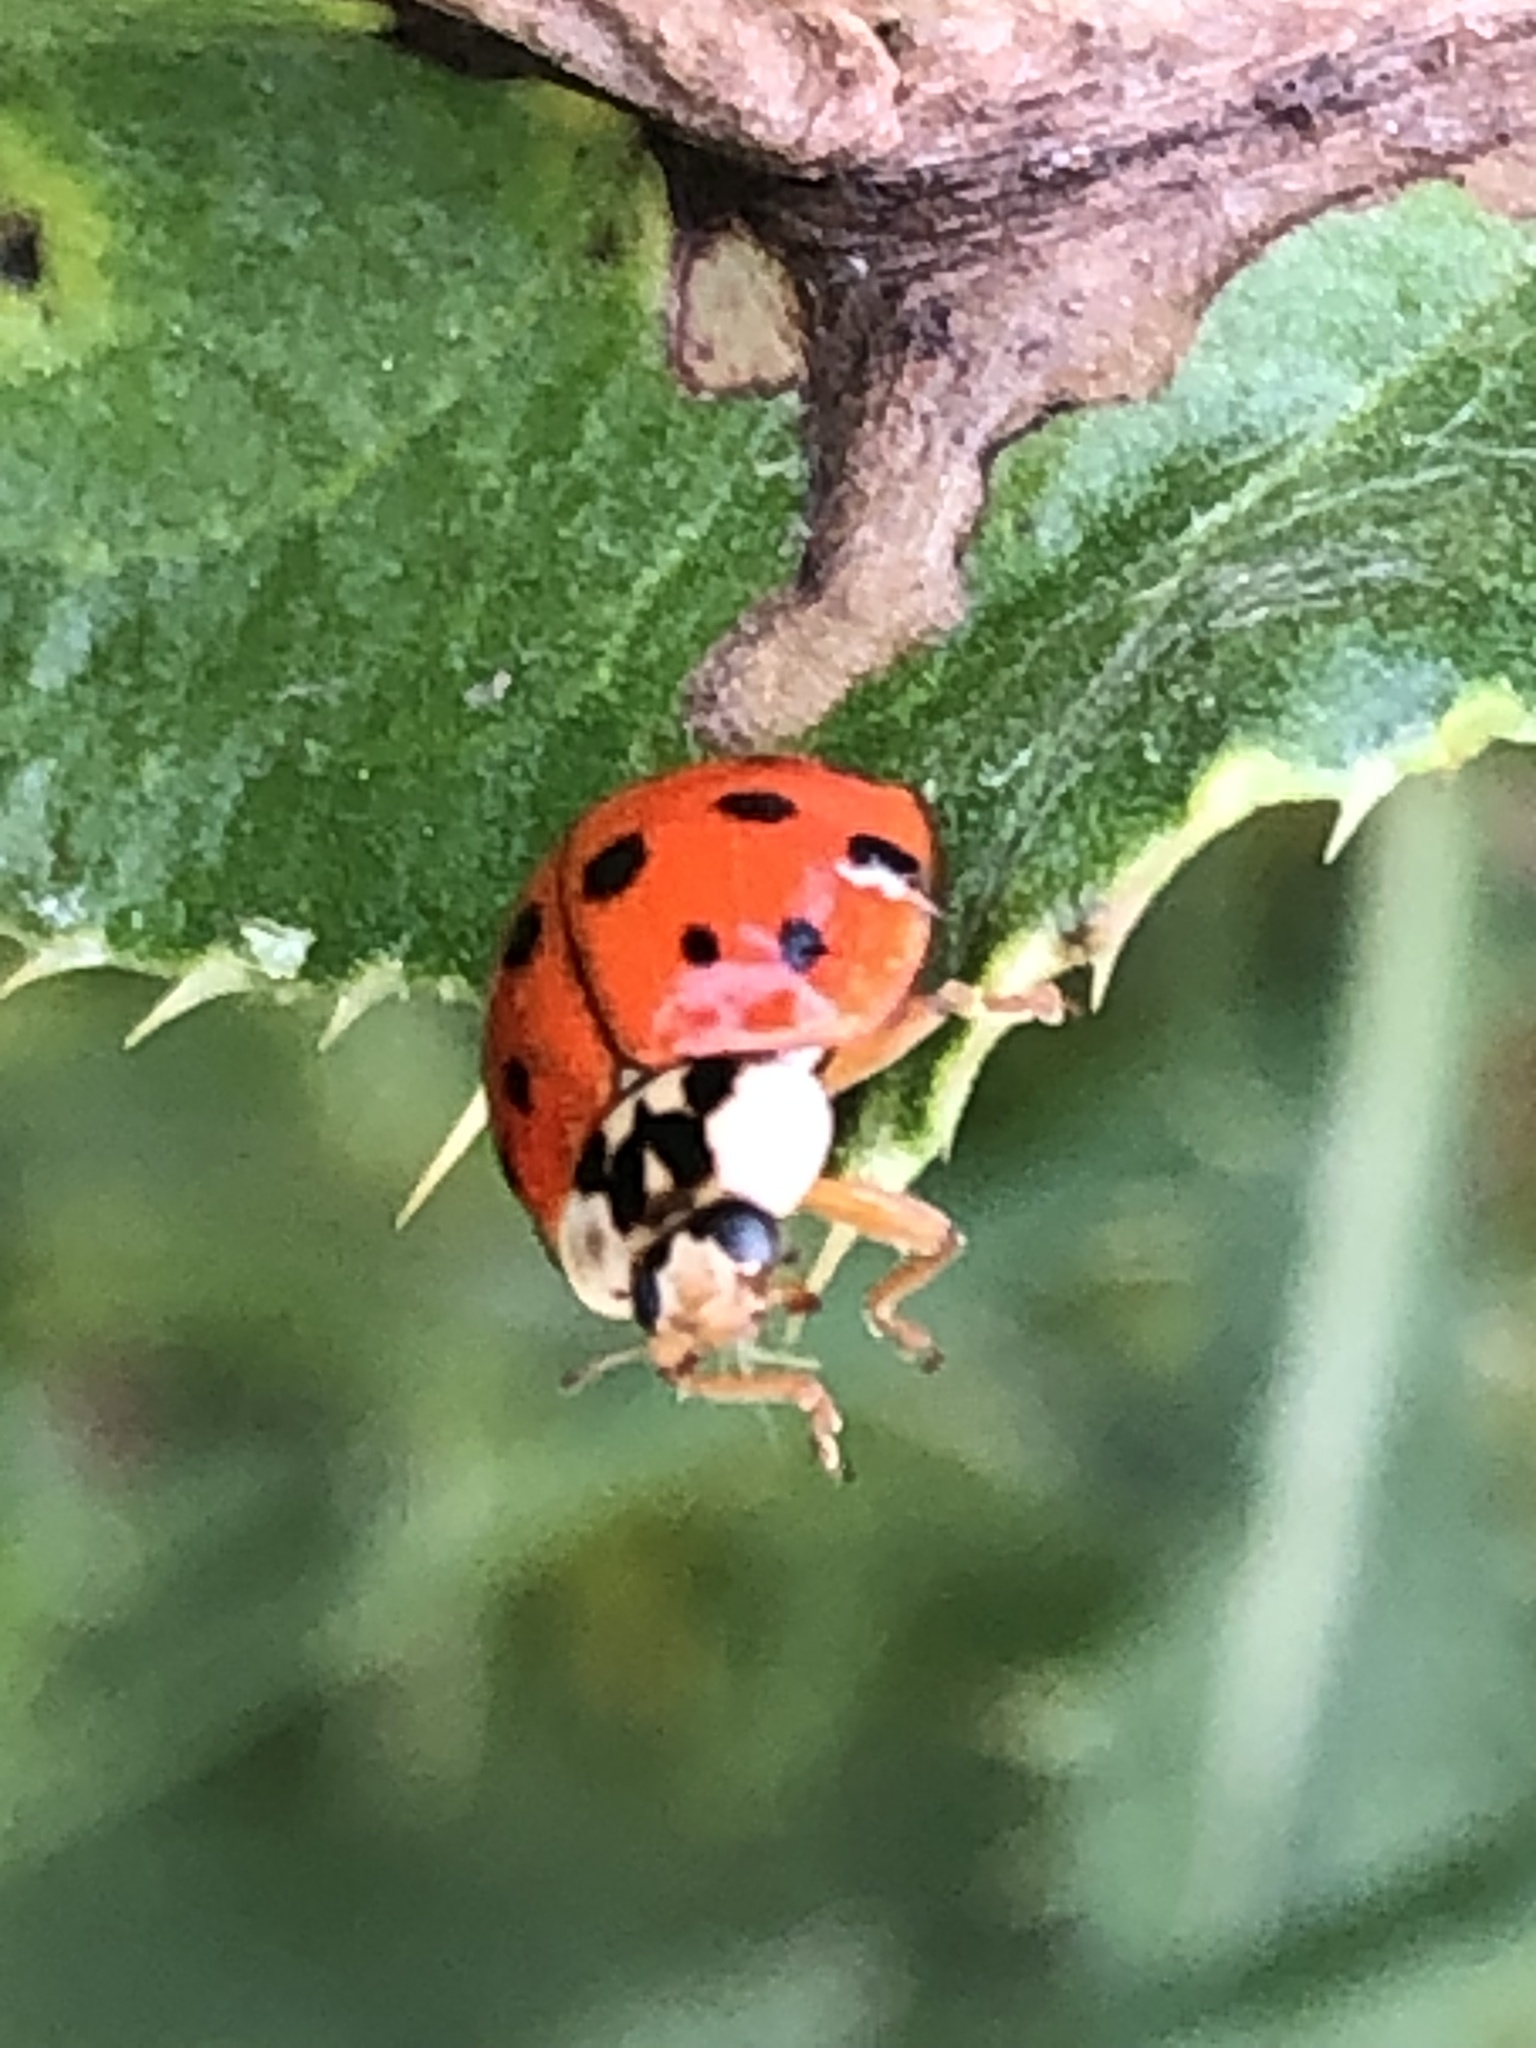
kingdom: Animalia
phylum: Arthropoda
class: Insecta
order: Coleoptera
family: Coccinellidae
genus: Harmonia
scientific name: Harmonia axyridis
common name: Harlequin ladybird
